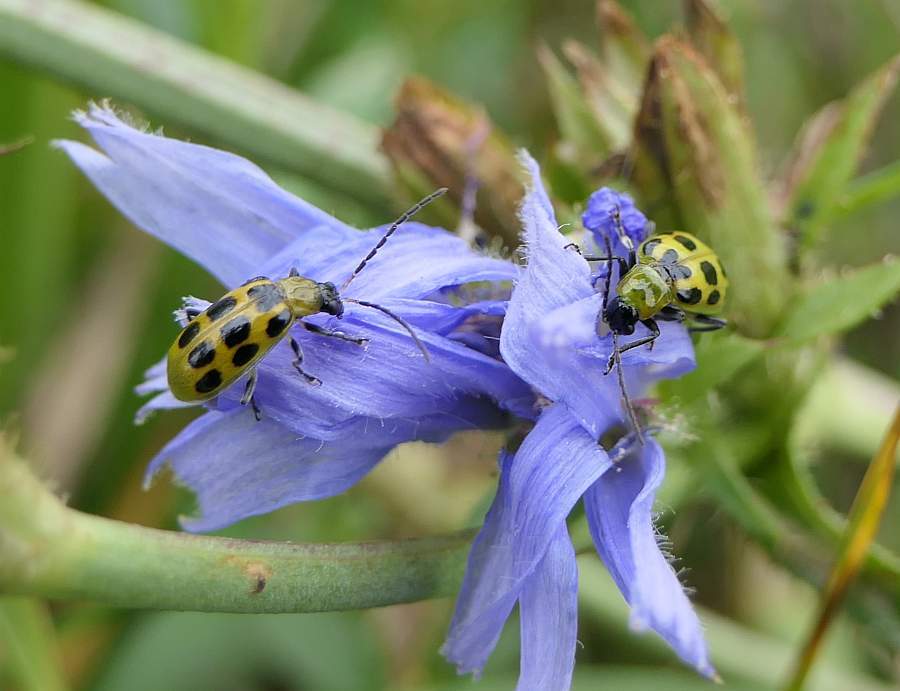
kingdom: Animalia
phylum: Arthropoda
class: Insecta
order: Coleoptera
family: Chrysomelidae
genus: Diabrotica
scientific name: Diabrotica undecimpunctata
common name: Spotted cucumber beetle
